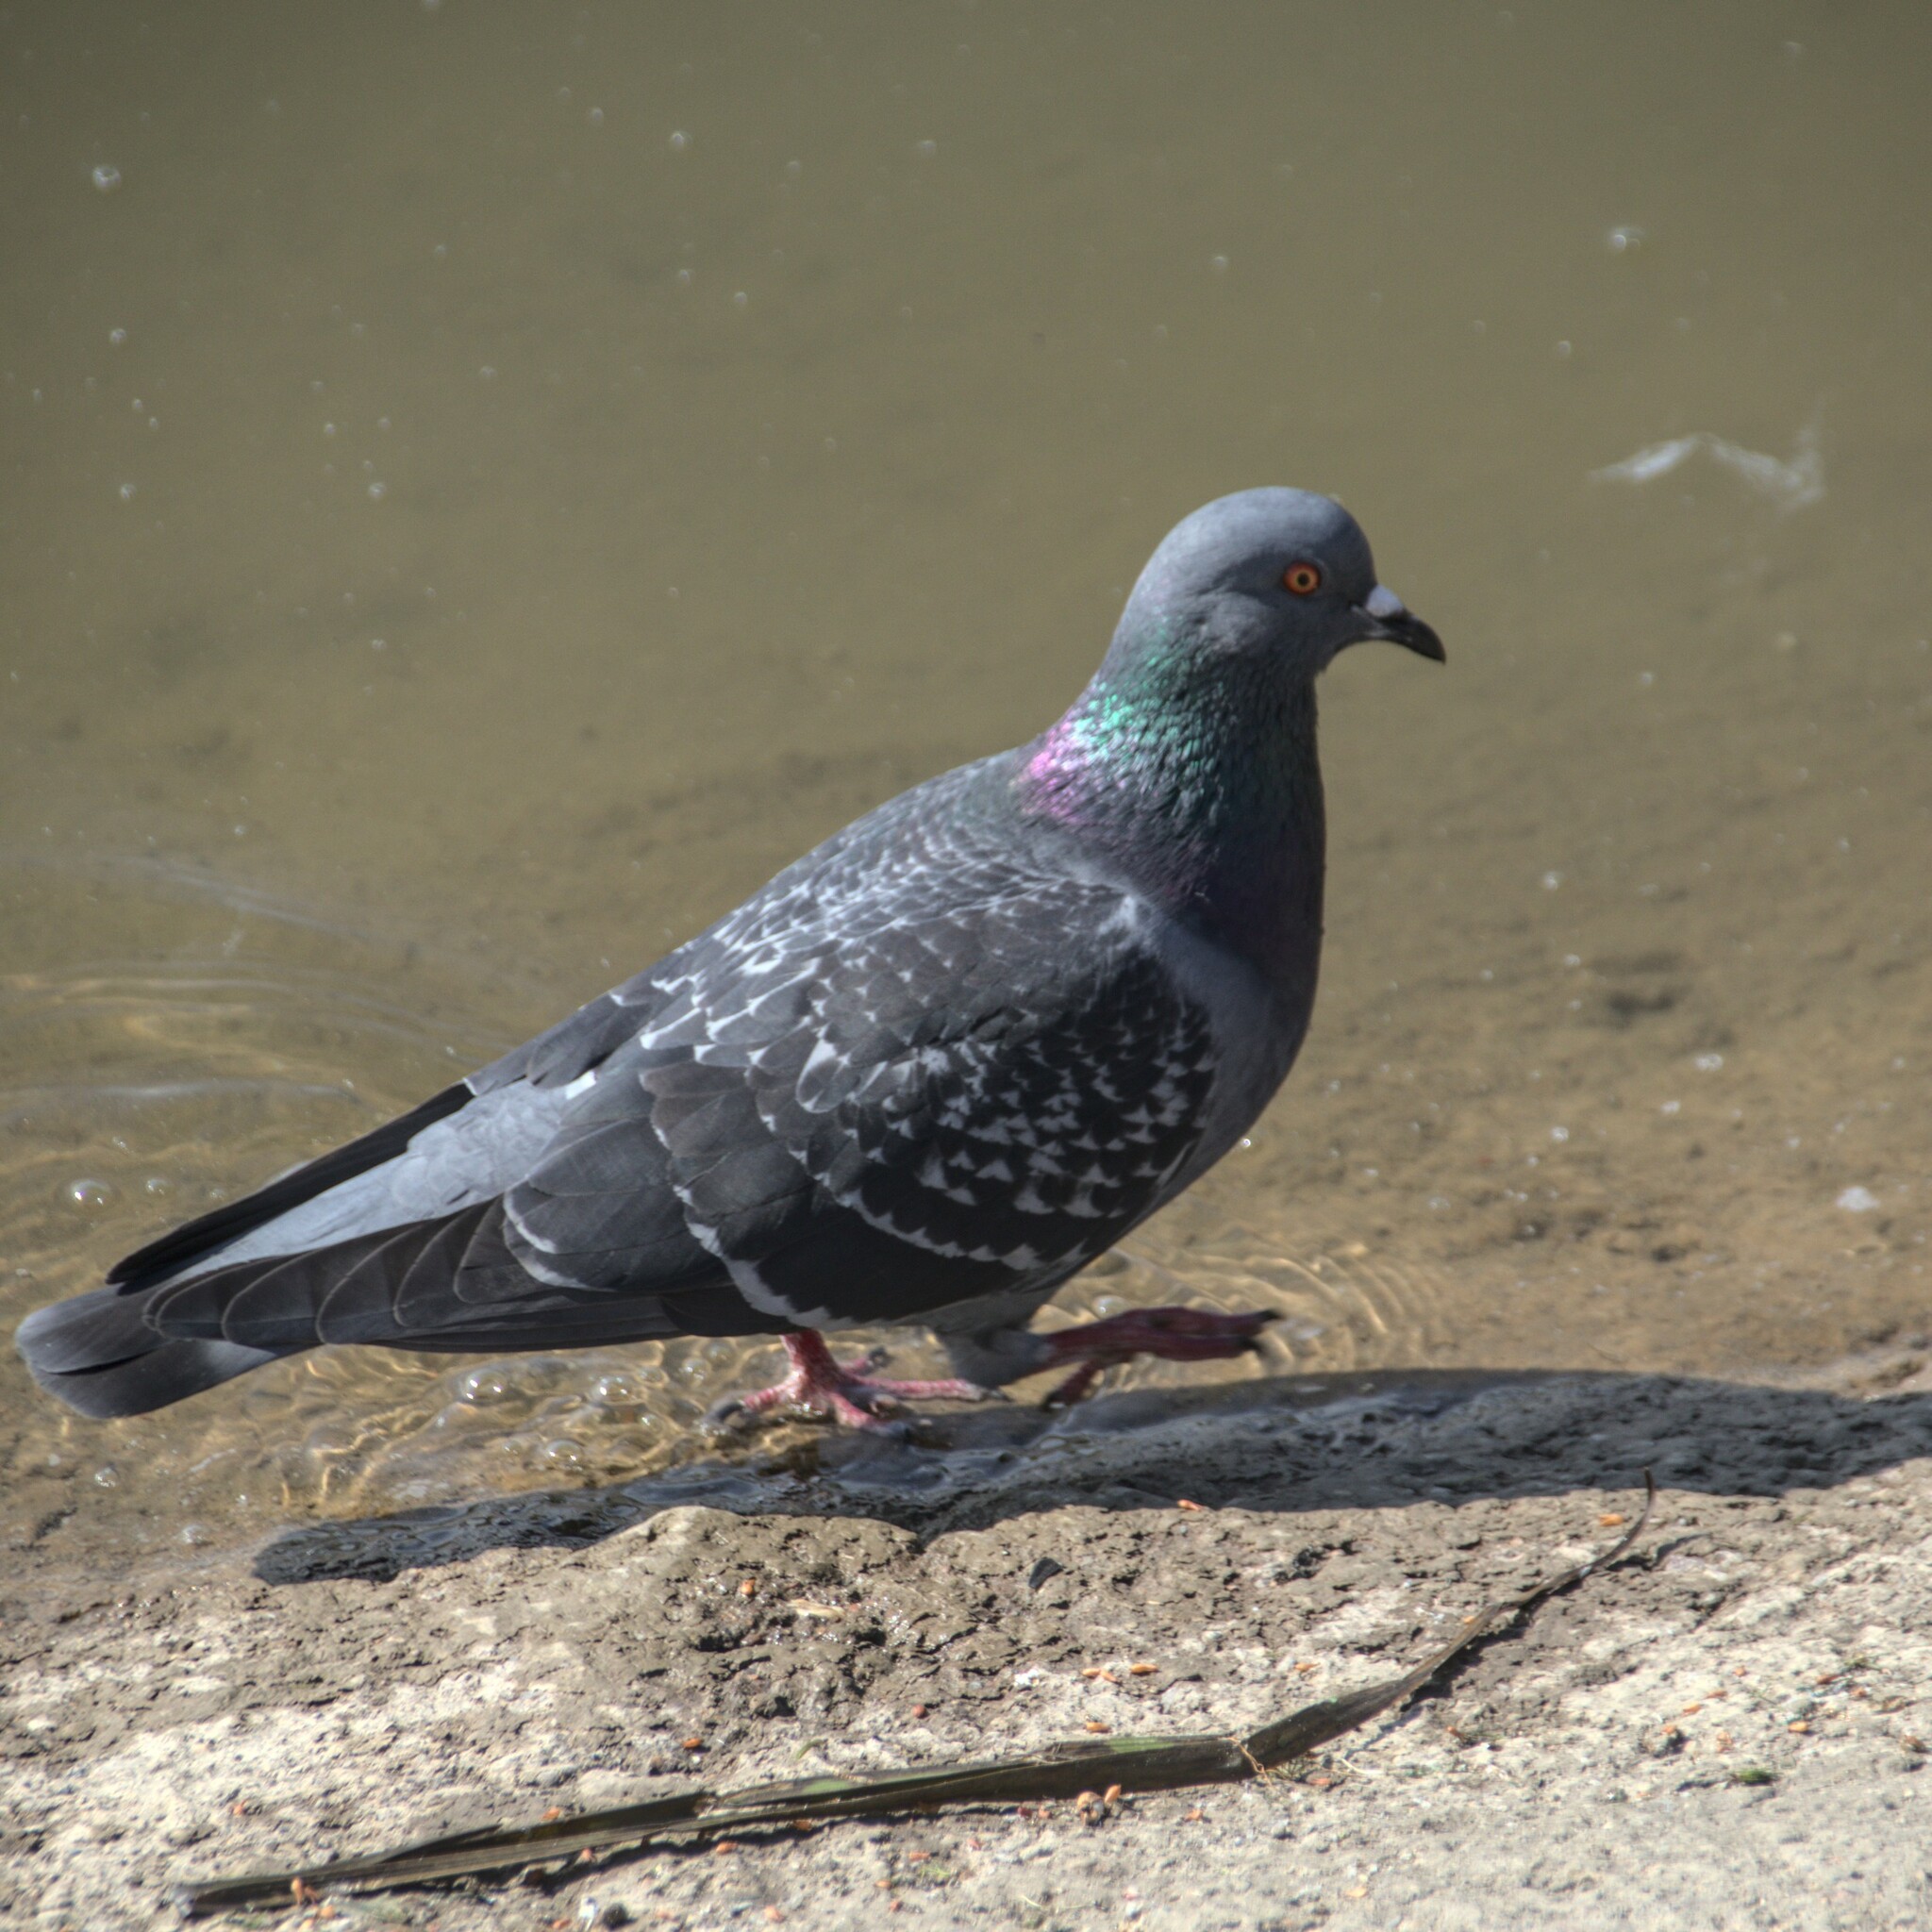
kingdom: Animalia
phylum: Chordata
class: Aves
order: Columbiformes
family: Columbidae
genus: Columba
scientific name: Columba livia
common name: Rock pigeon
